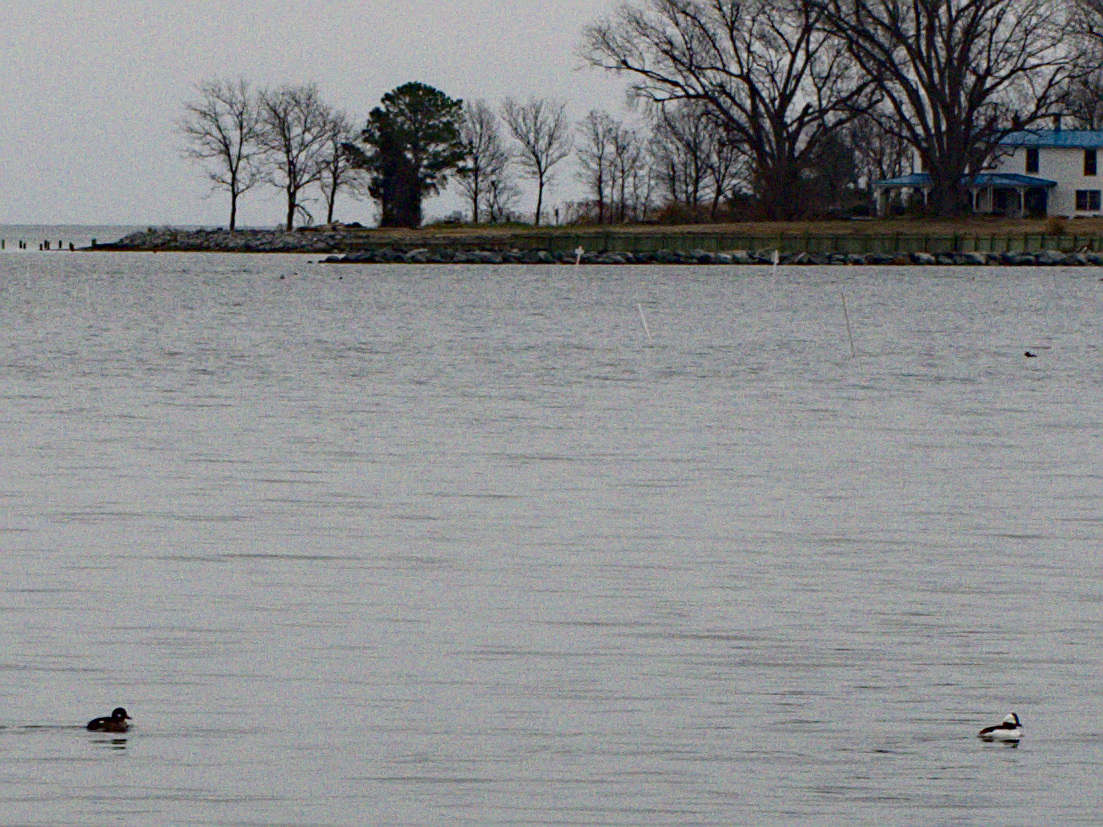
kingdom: Animalia
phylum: Chordata
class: Aves
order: Anseriformes
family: Anatidae
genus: Bucephala
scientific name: Bucephala albeola
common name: Bufflehead
